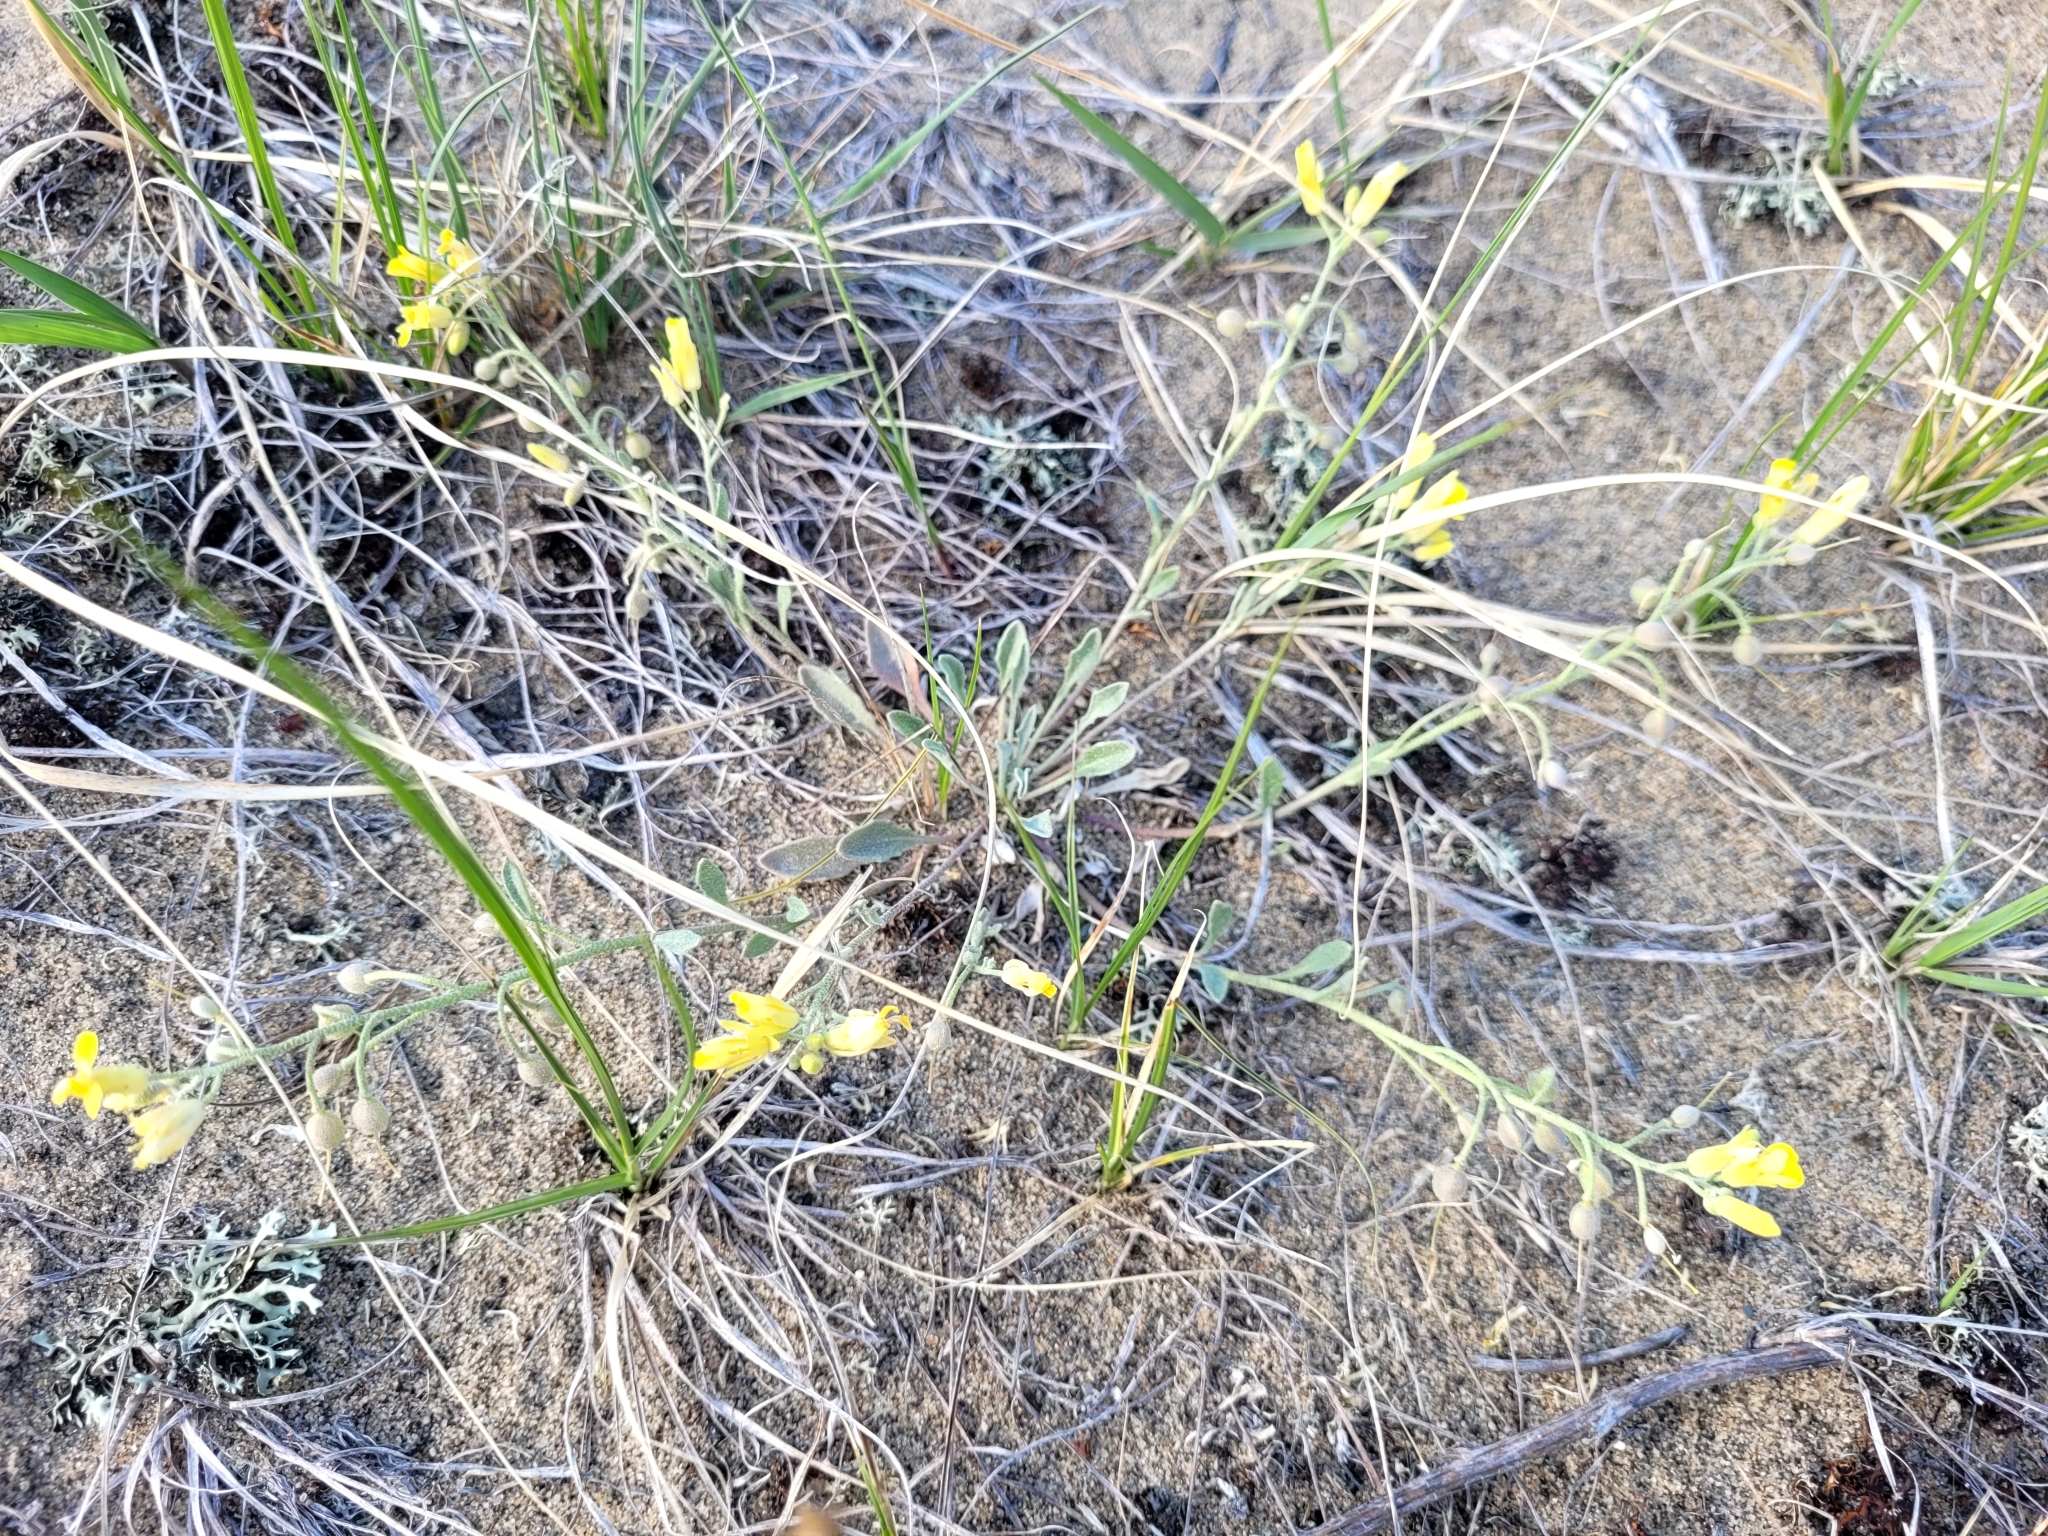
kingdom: Plantae
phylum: Tracheophyta
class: Magnoliopsida
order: Brassicales
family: Brassicaceae
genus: Physaria
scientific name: Physaria arenosa
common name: Great plains bladderpod
